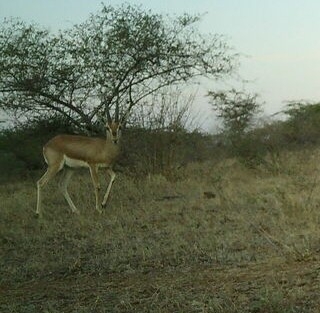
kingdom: Animalia
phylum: Chordata
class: Mammalia
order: Artiodactyla
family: Bovidae
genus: Gazella
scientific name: Gazella bennettii
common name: Indian gazelle
